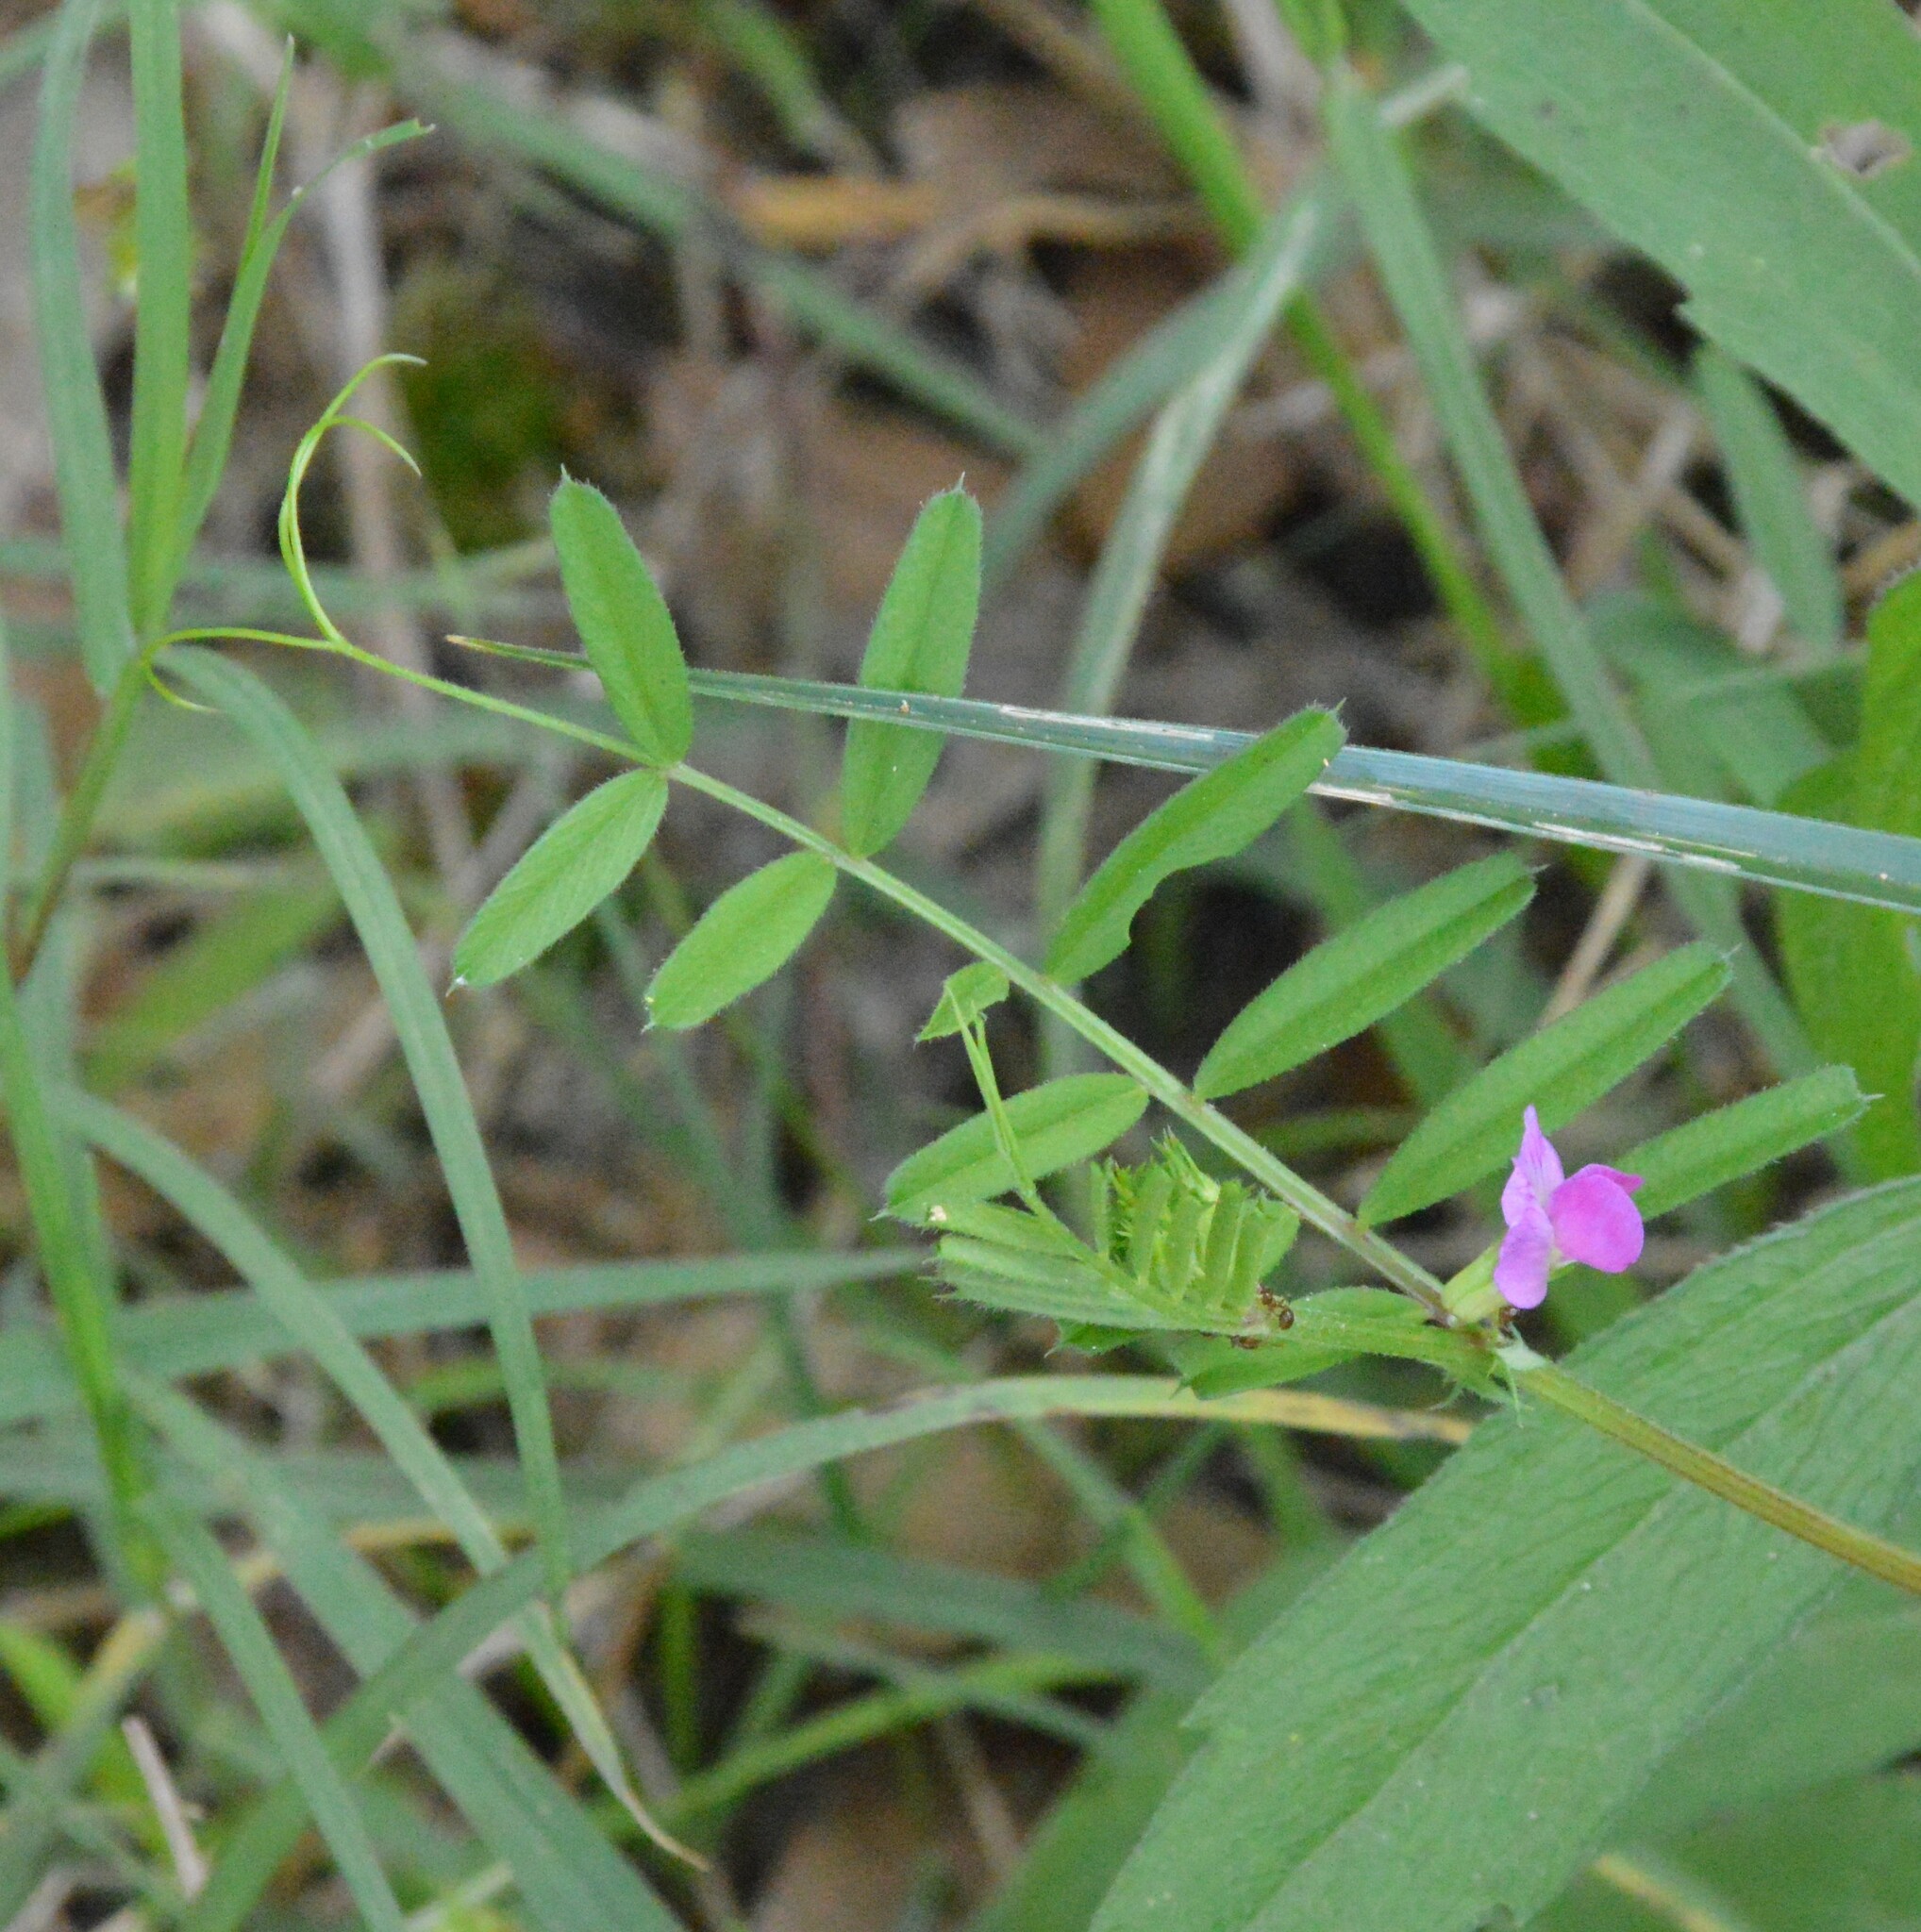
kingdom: Plantae
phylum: Tracheophyta
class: Magnoliopsida
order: Fabales
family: Fabaceae
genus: Vicia
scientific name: Vicia sativa
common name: Garden vetch
